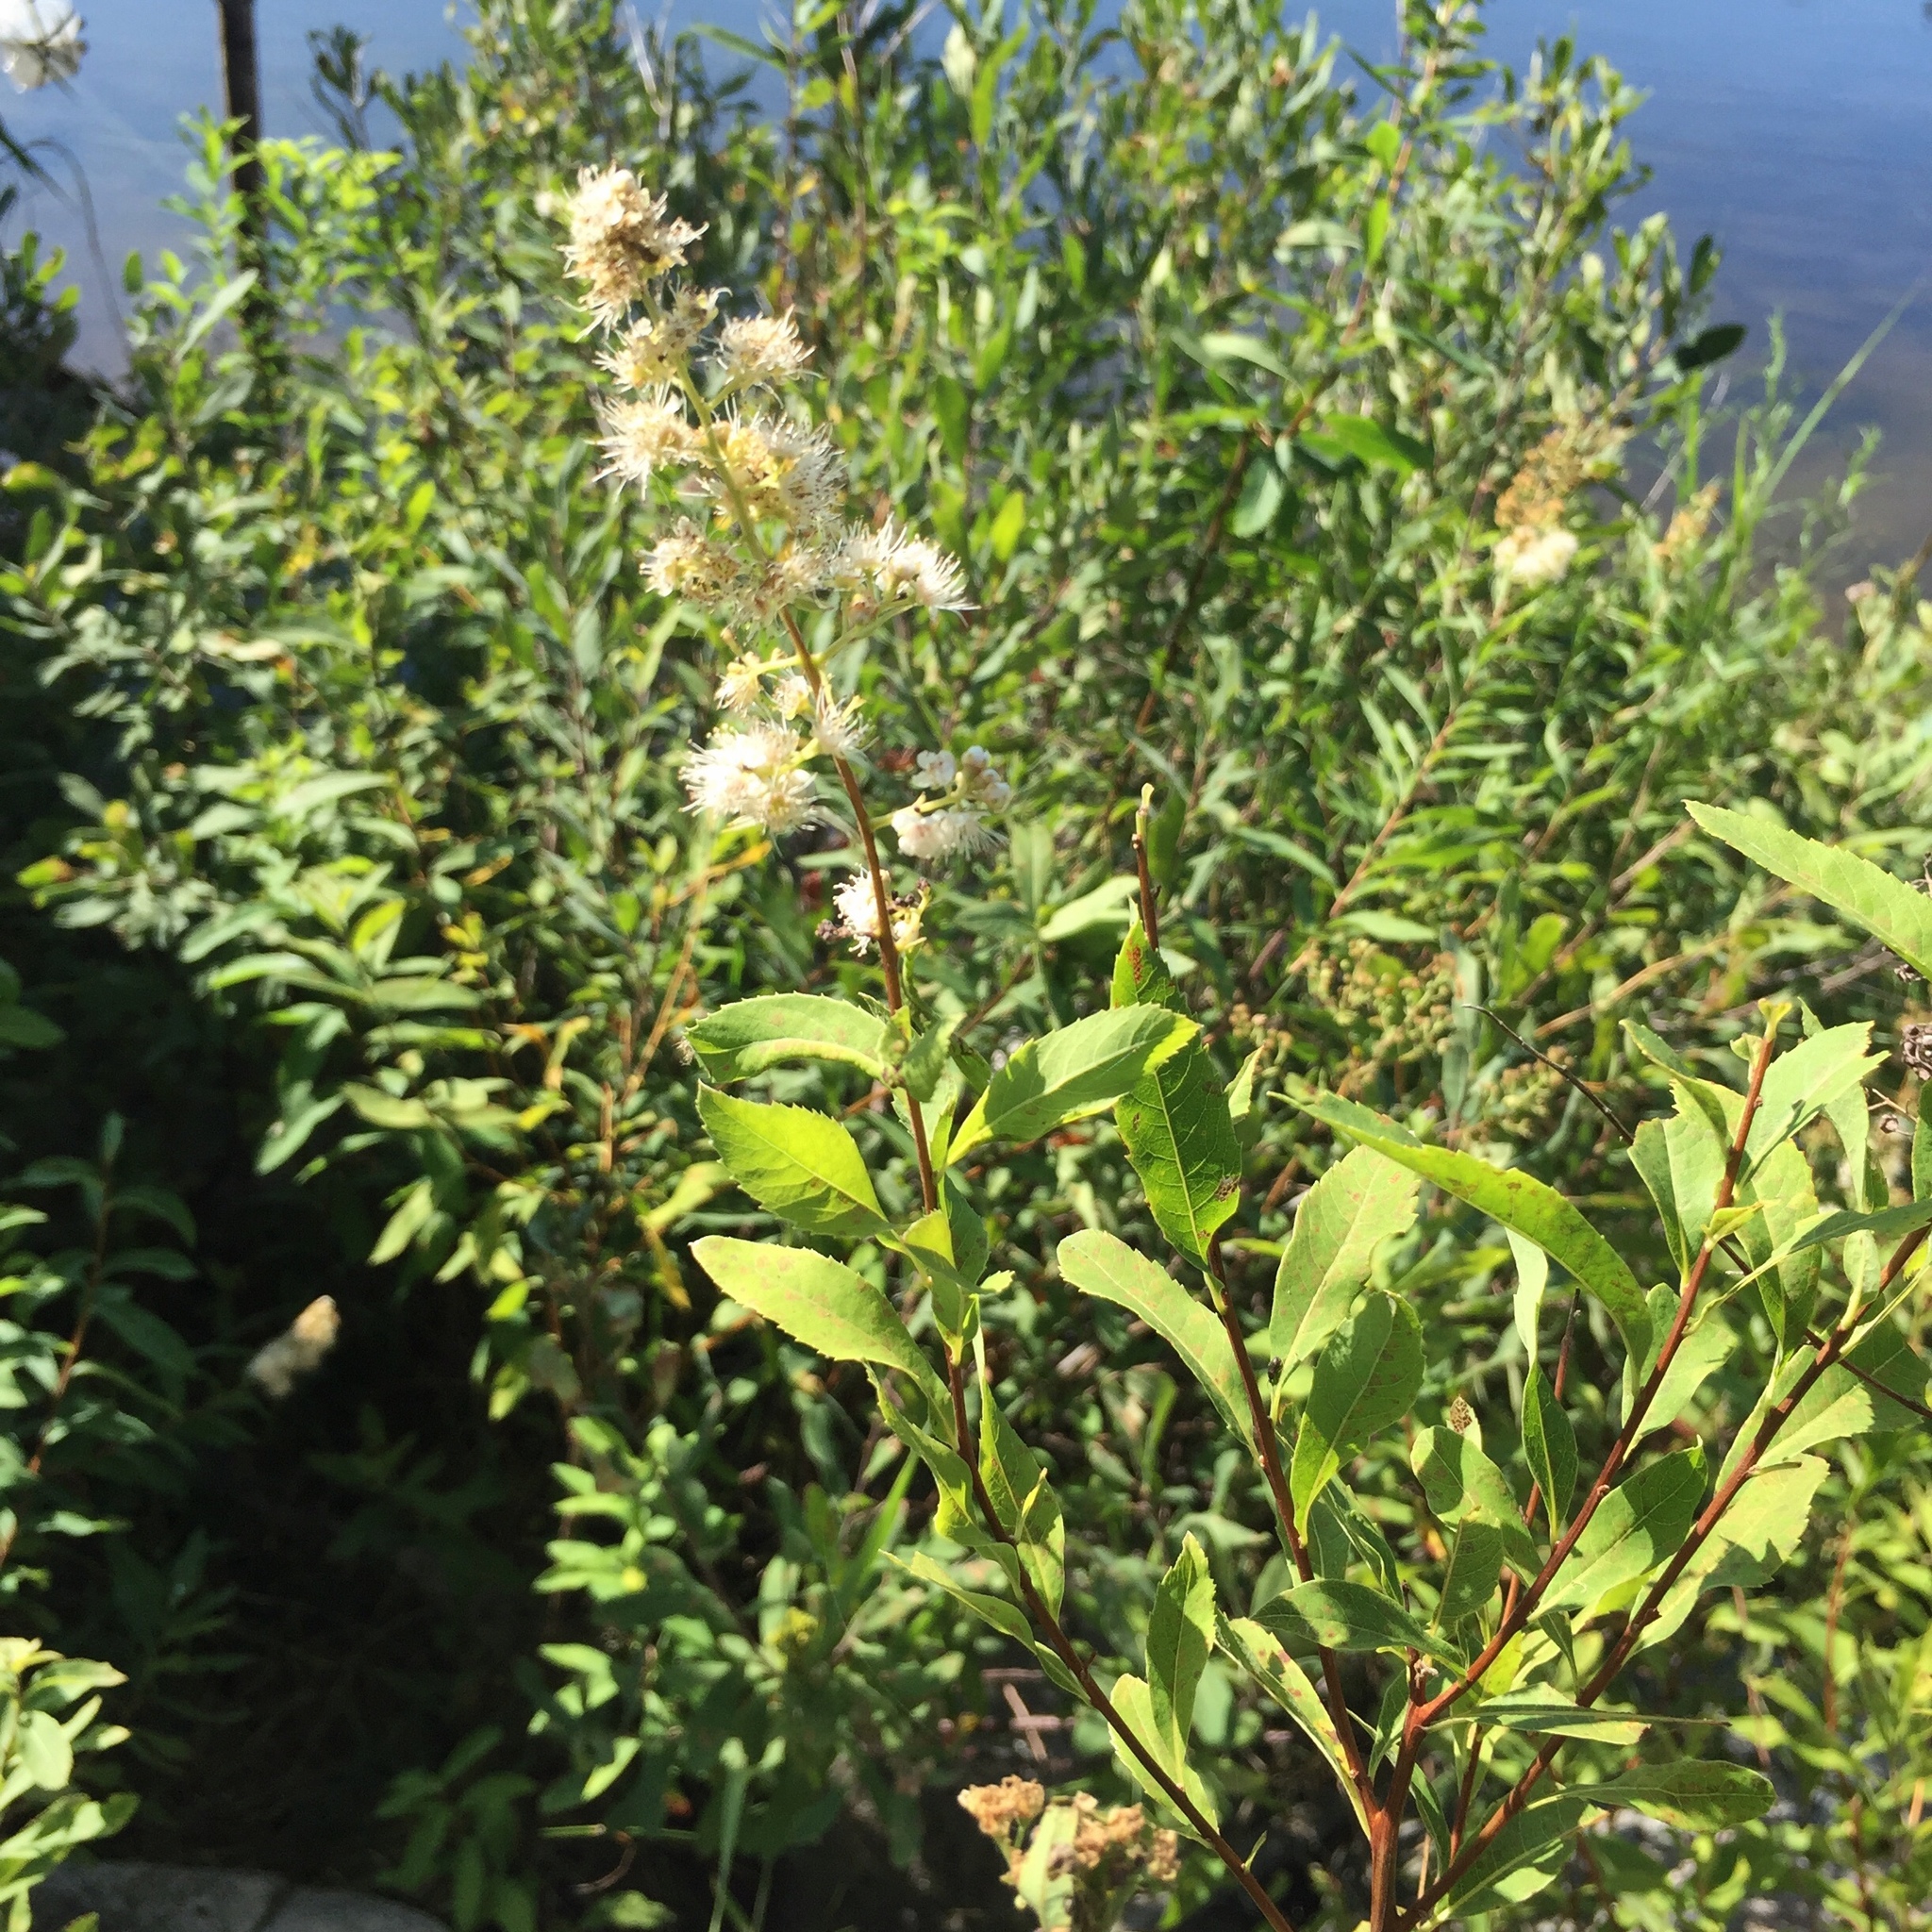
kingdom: Plantae
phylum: Tracheophyta
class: Magnoliopsida
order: Rosales
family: Rosaceae
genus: Spiraea
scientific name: Spiraea alba
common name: Pale bridewort
